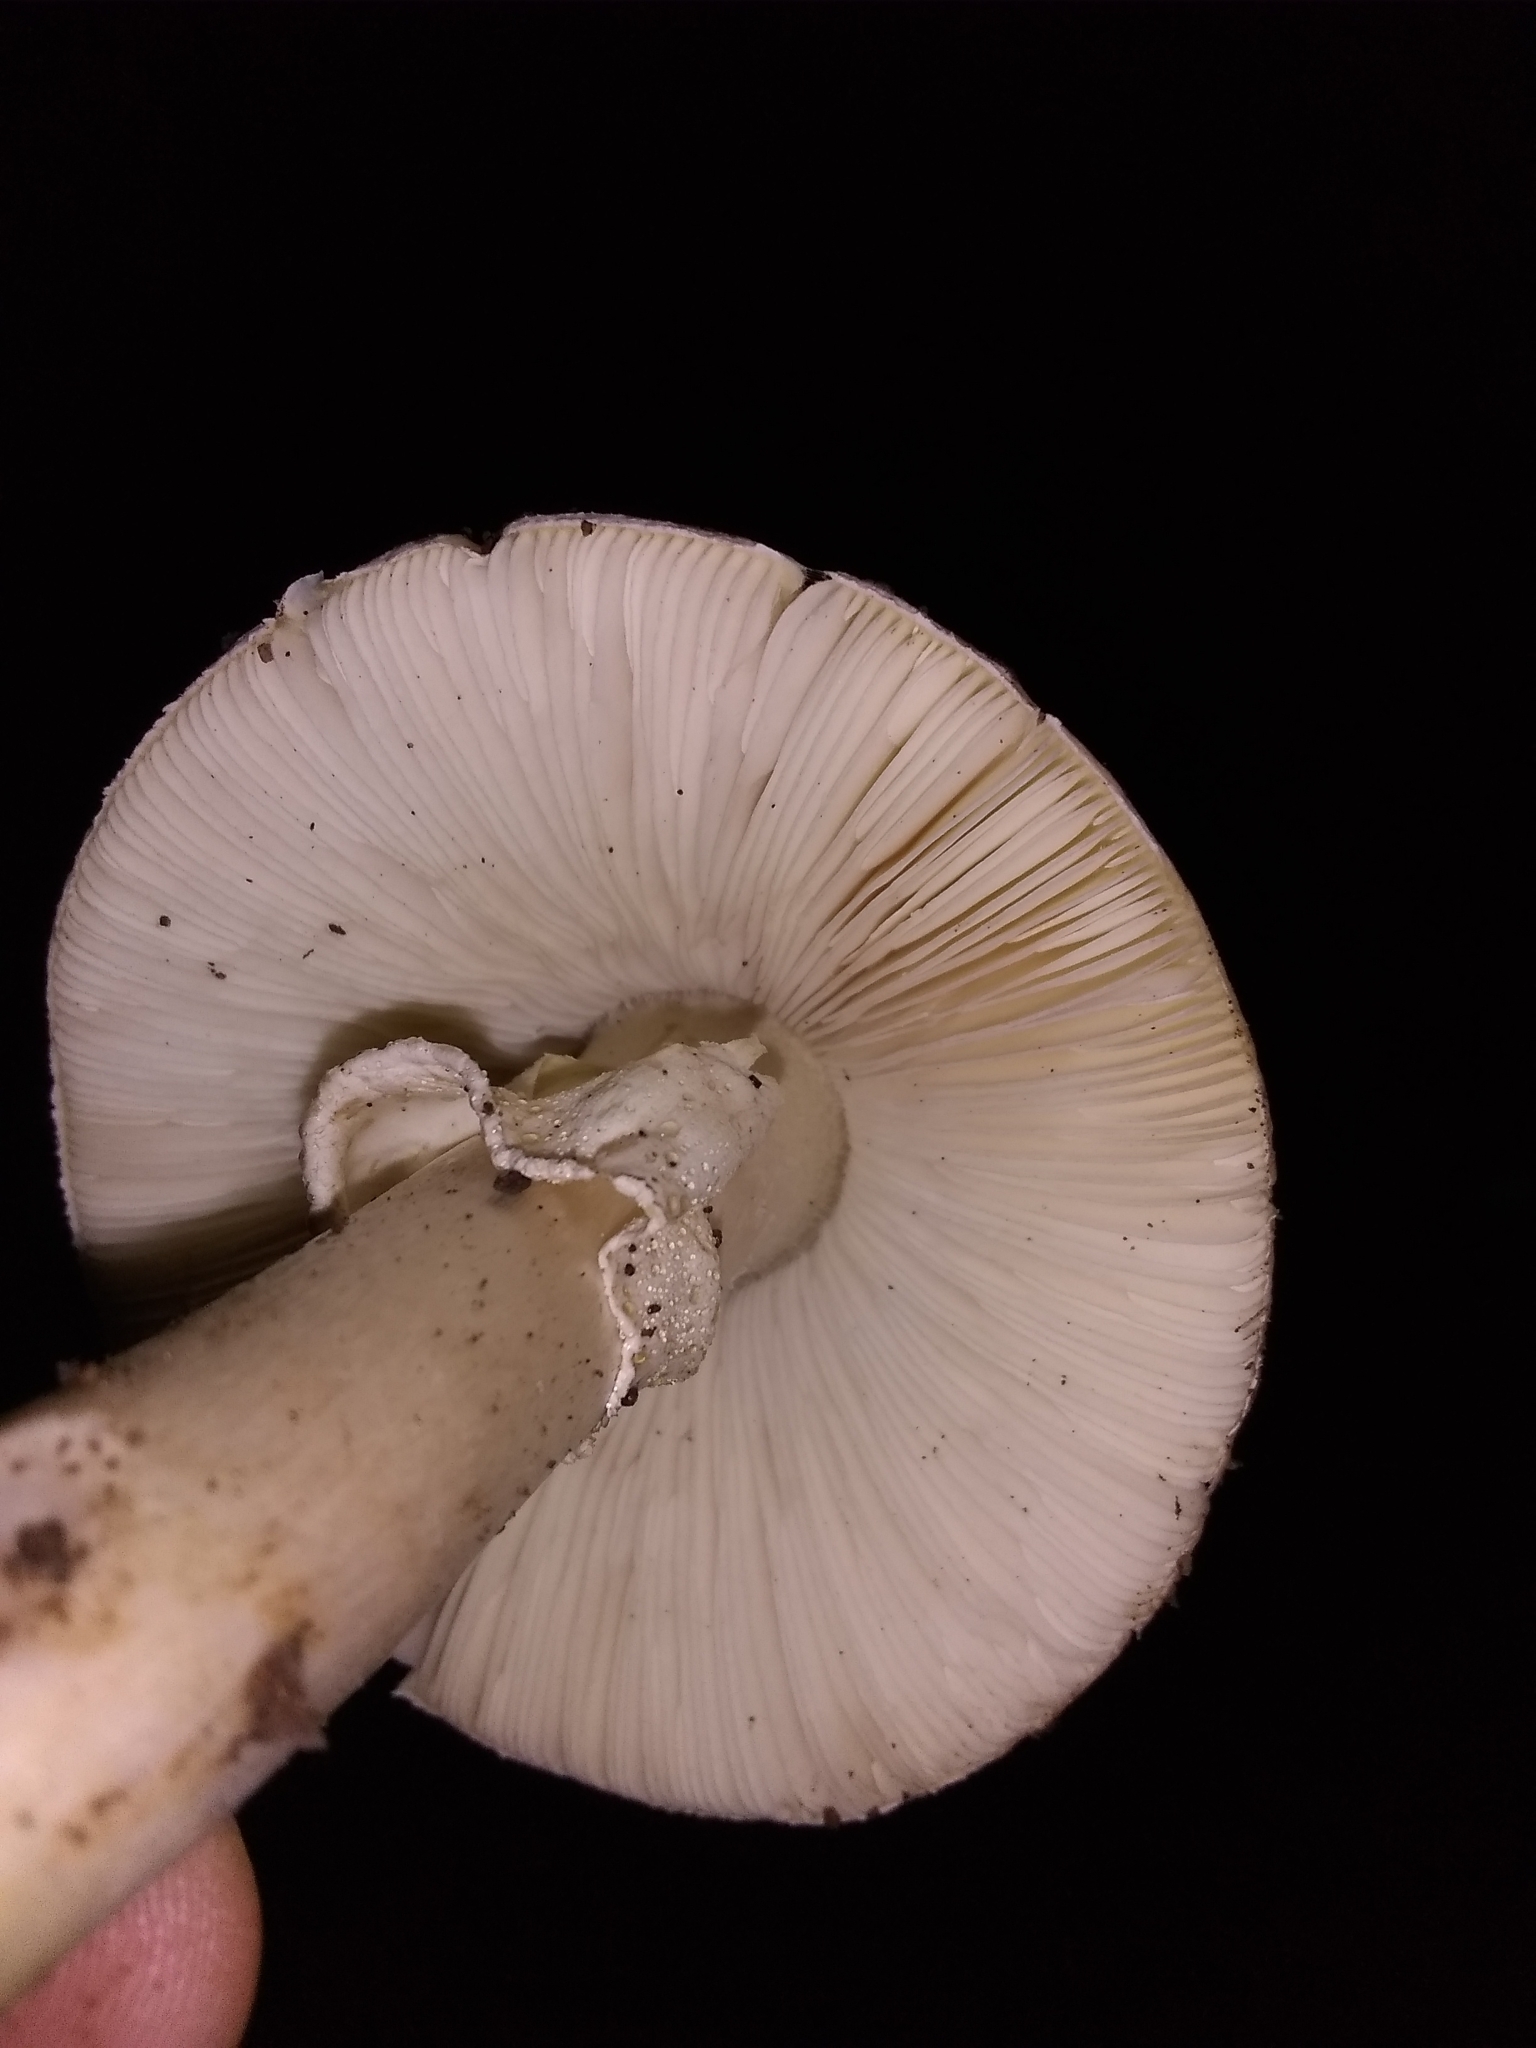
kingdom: Fungi
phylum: Basidiomycota
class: Agaricomycetes
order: Agaricales
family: Amanitaceae
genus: Amanita
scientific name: Amanita phalloides
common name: Death cap
